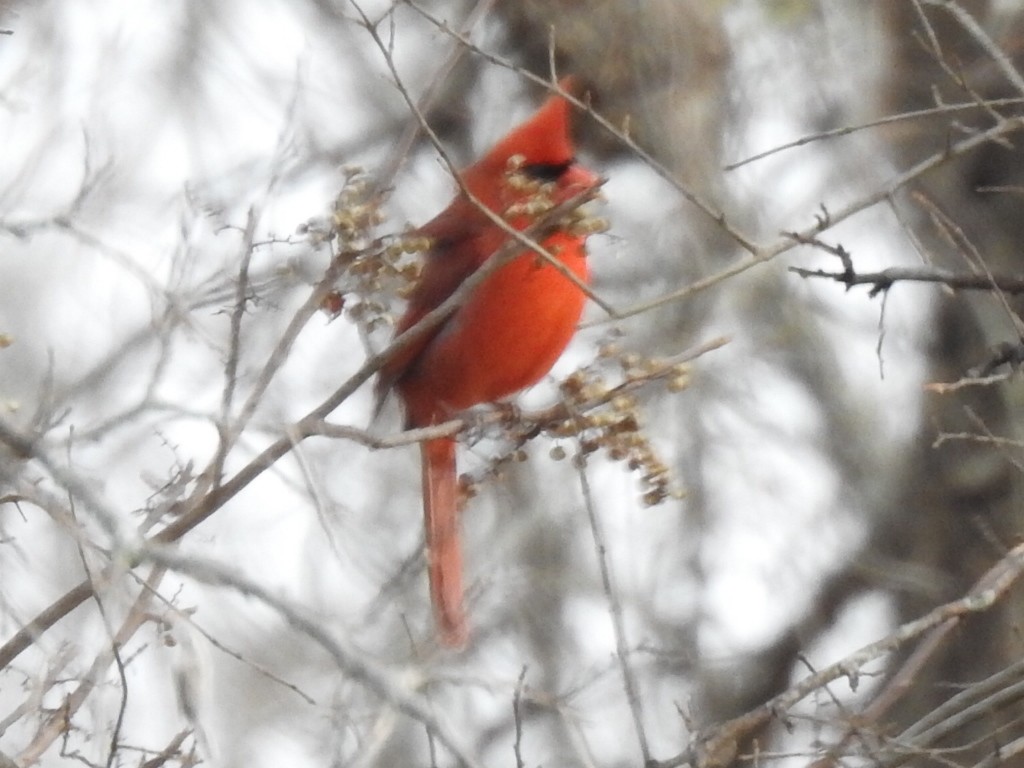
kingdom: Animalia
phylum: Chordata
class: Aves
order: Passeriformes
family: Cardinalidae
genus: Cardinalis
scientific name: Cardinalis cardinalis
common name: Northern cardinal
